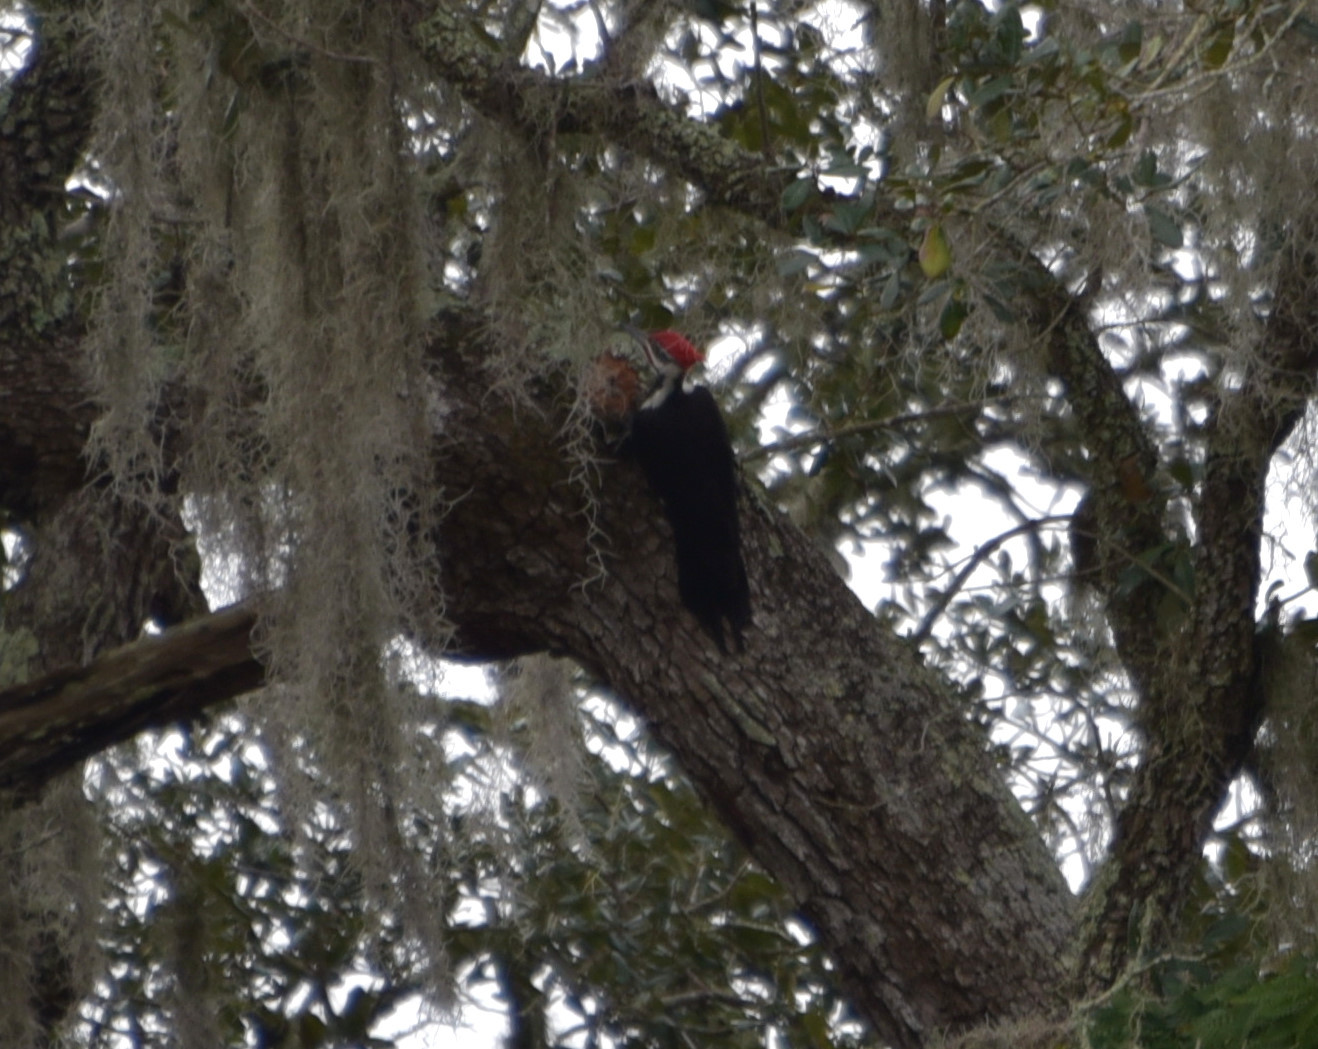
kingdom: Animalia
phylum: Chordata
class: Aves
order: Piciformes
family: Picidae
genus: Dryocopus
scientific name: Dryocopus pileatus
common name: Pileated woodpecker
